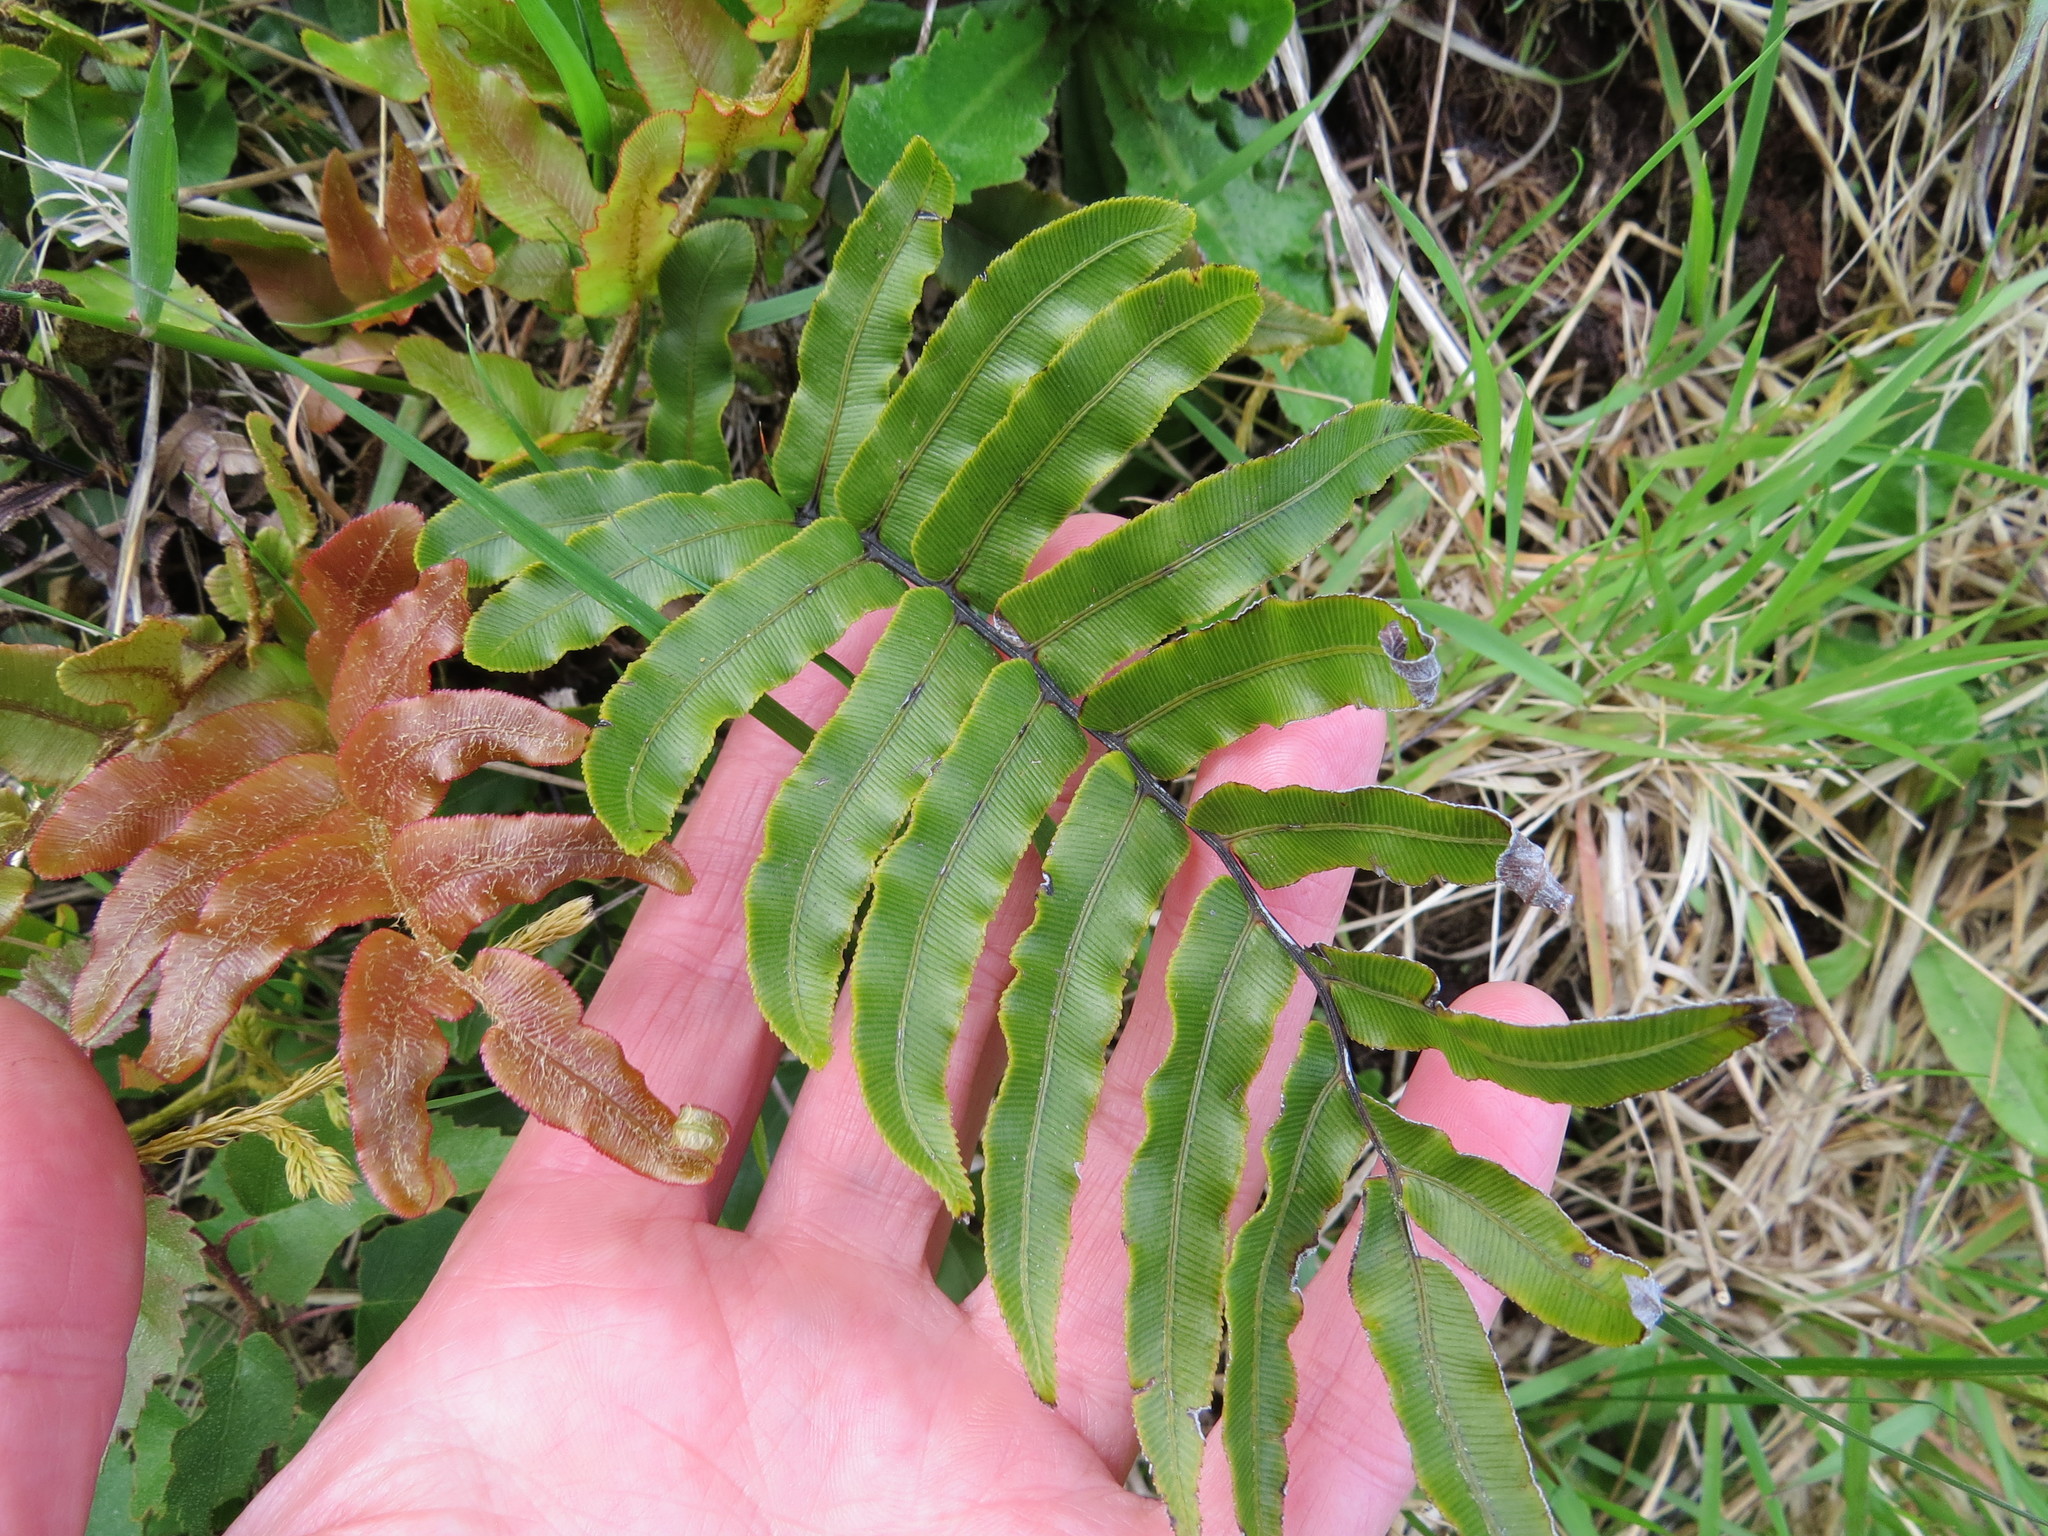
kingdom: Plantae
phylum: Tracheophyta
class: Polypodiopsida
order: Polypodiales
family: Blechnaceae
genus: Parablechnum
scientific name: Parablechnum procerum
